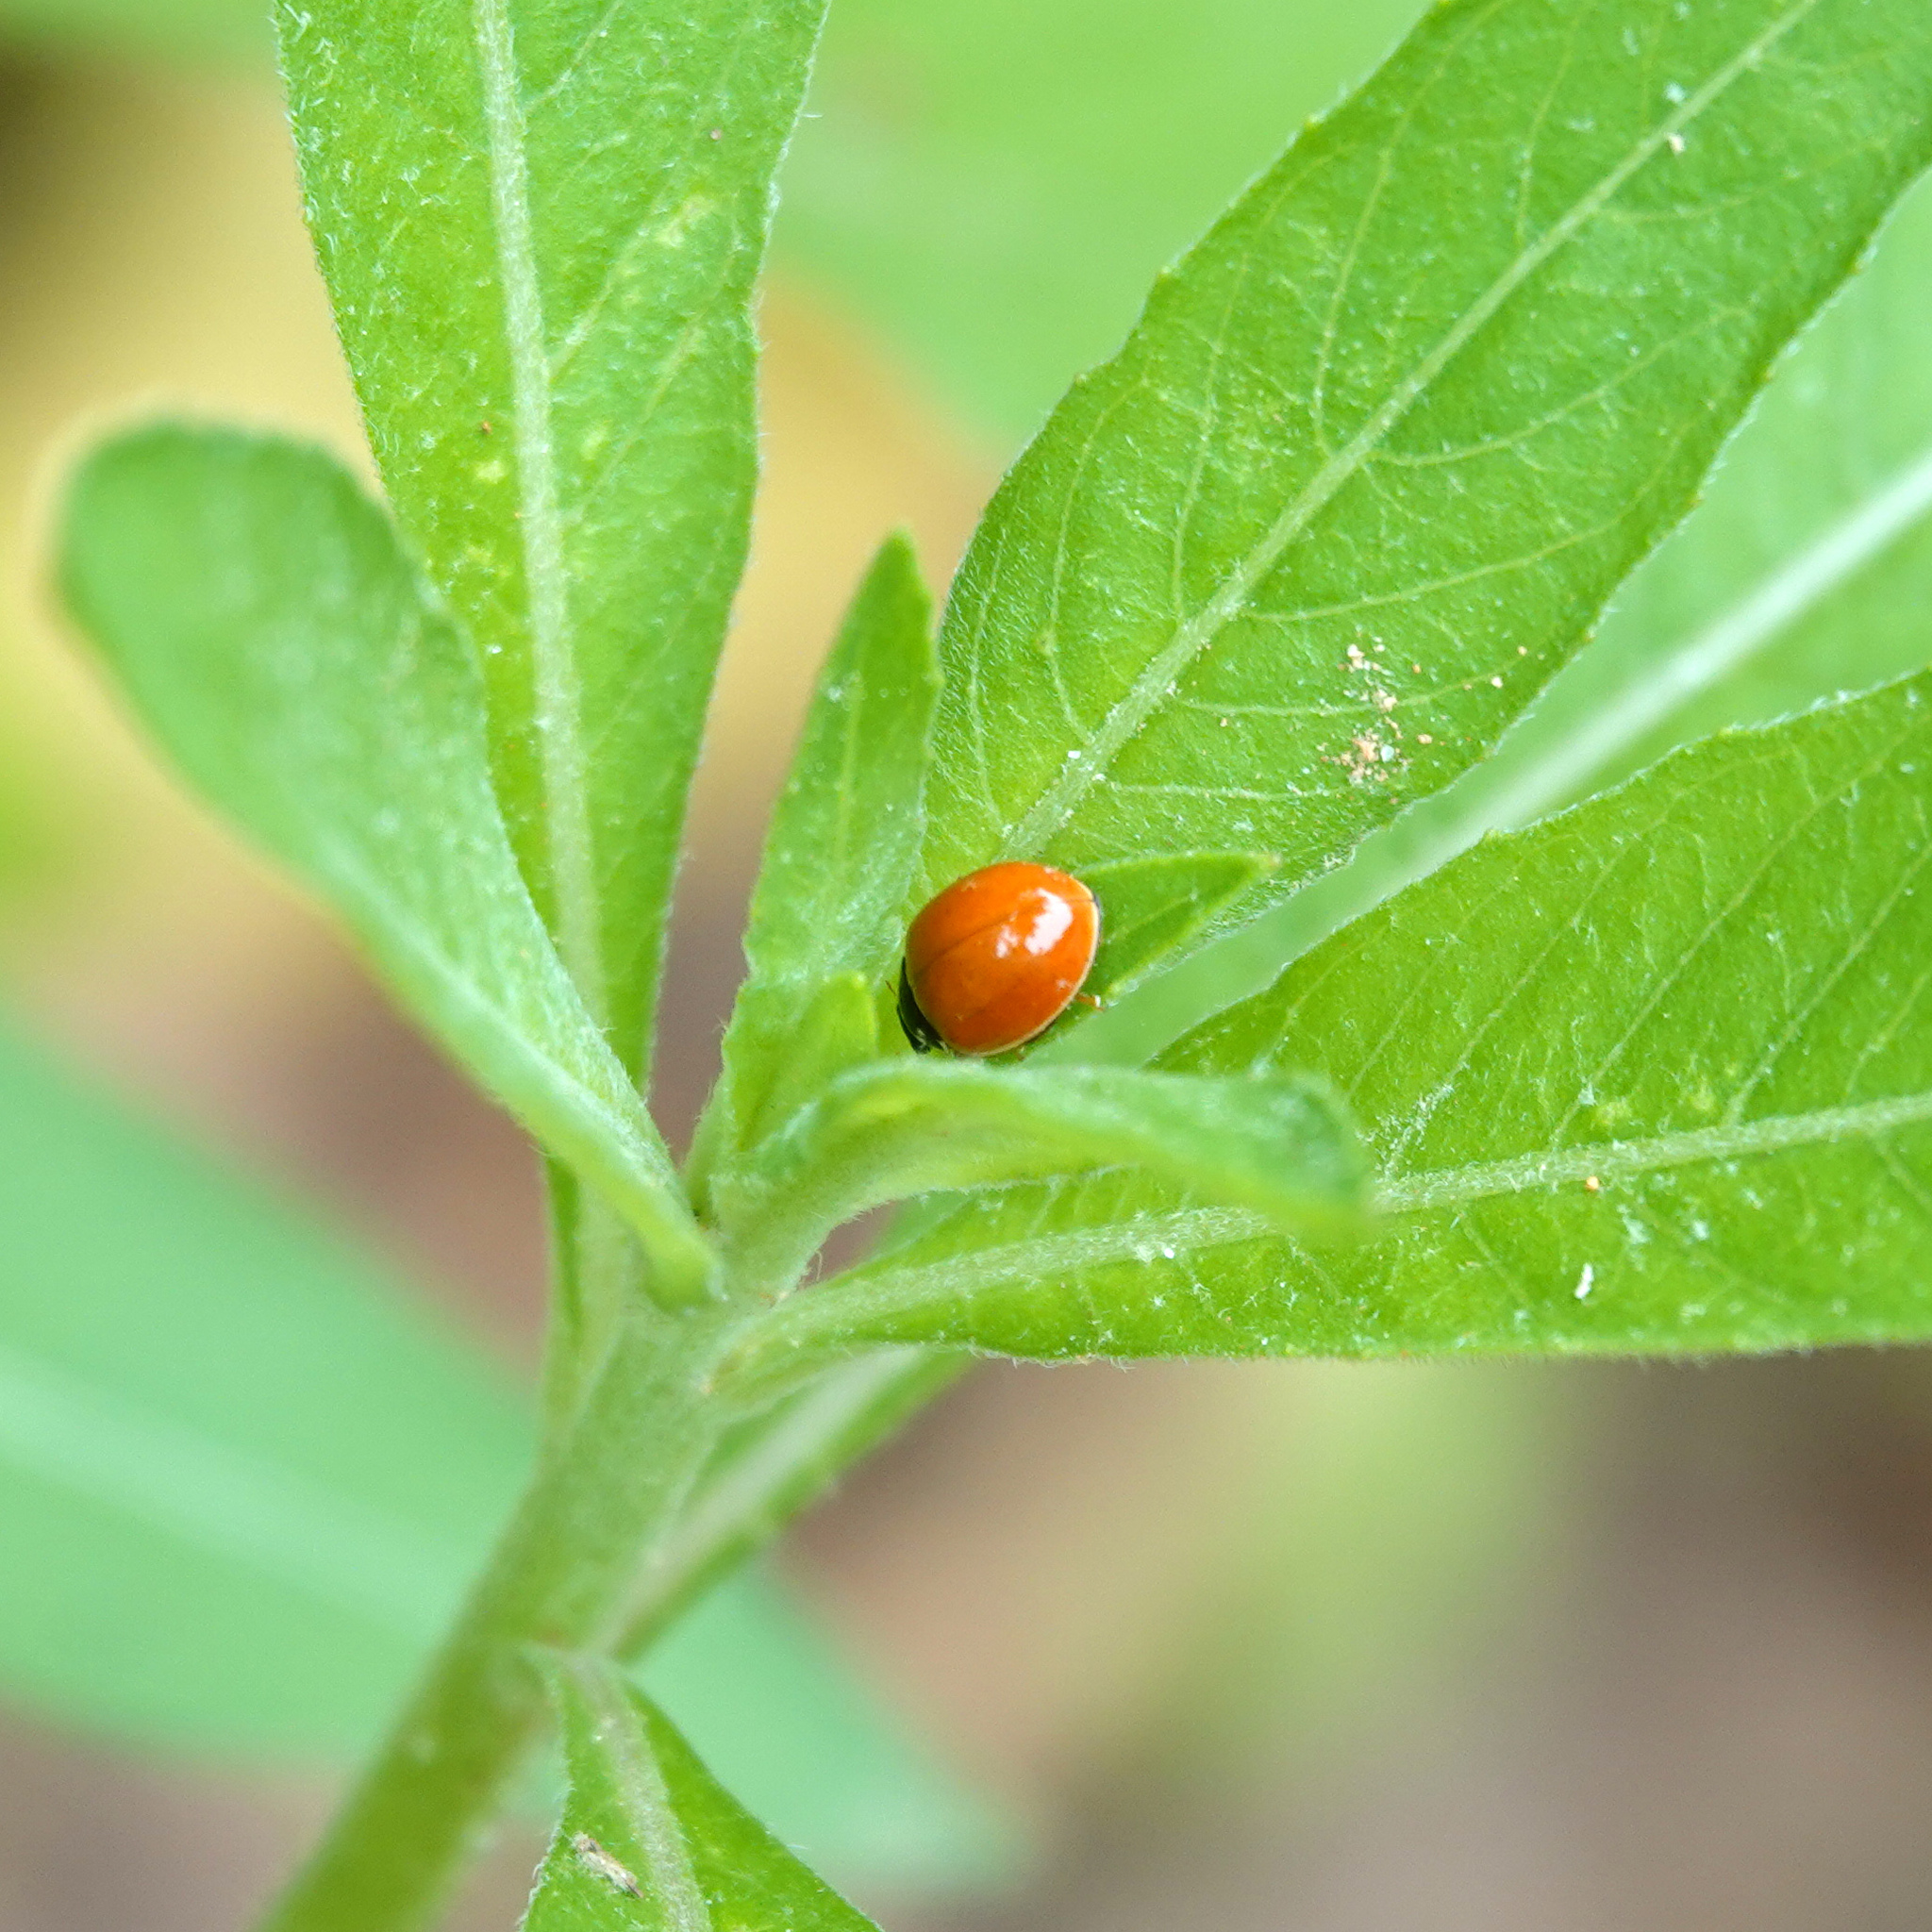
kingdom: Animalia
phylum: Arthropoda
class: Insecta
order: Coleoptera
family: Coccinellidae
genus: Cycloneda
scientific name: Cycloneda munda
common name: Polished lady beetle
